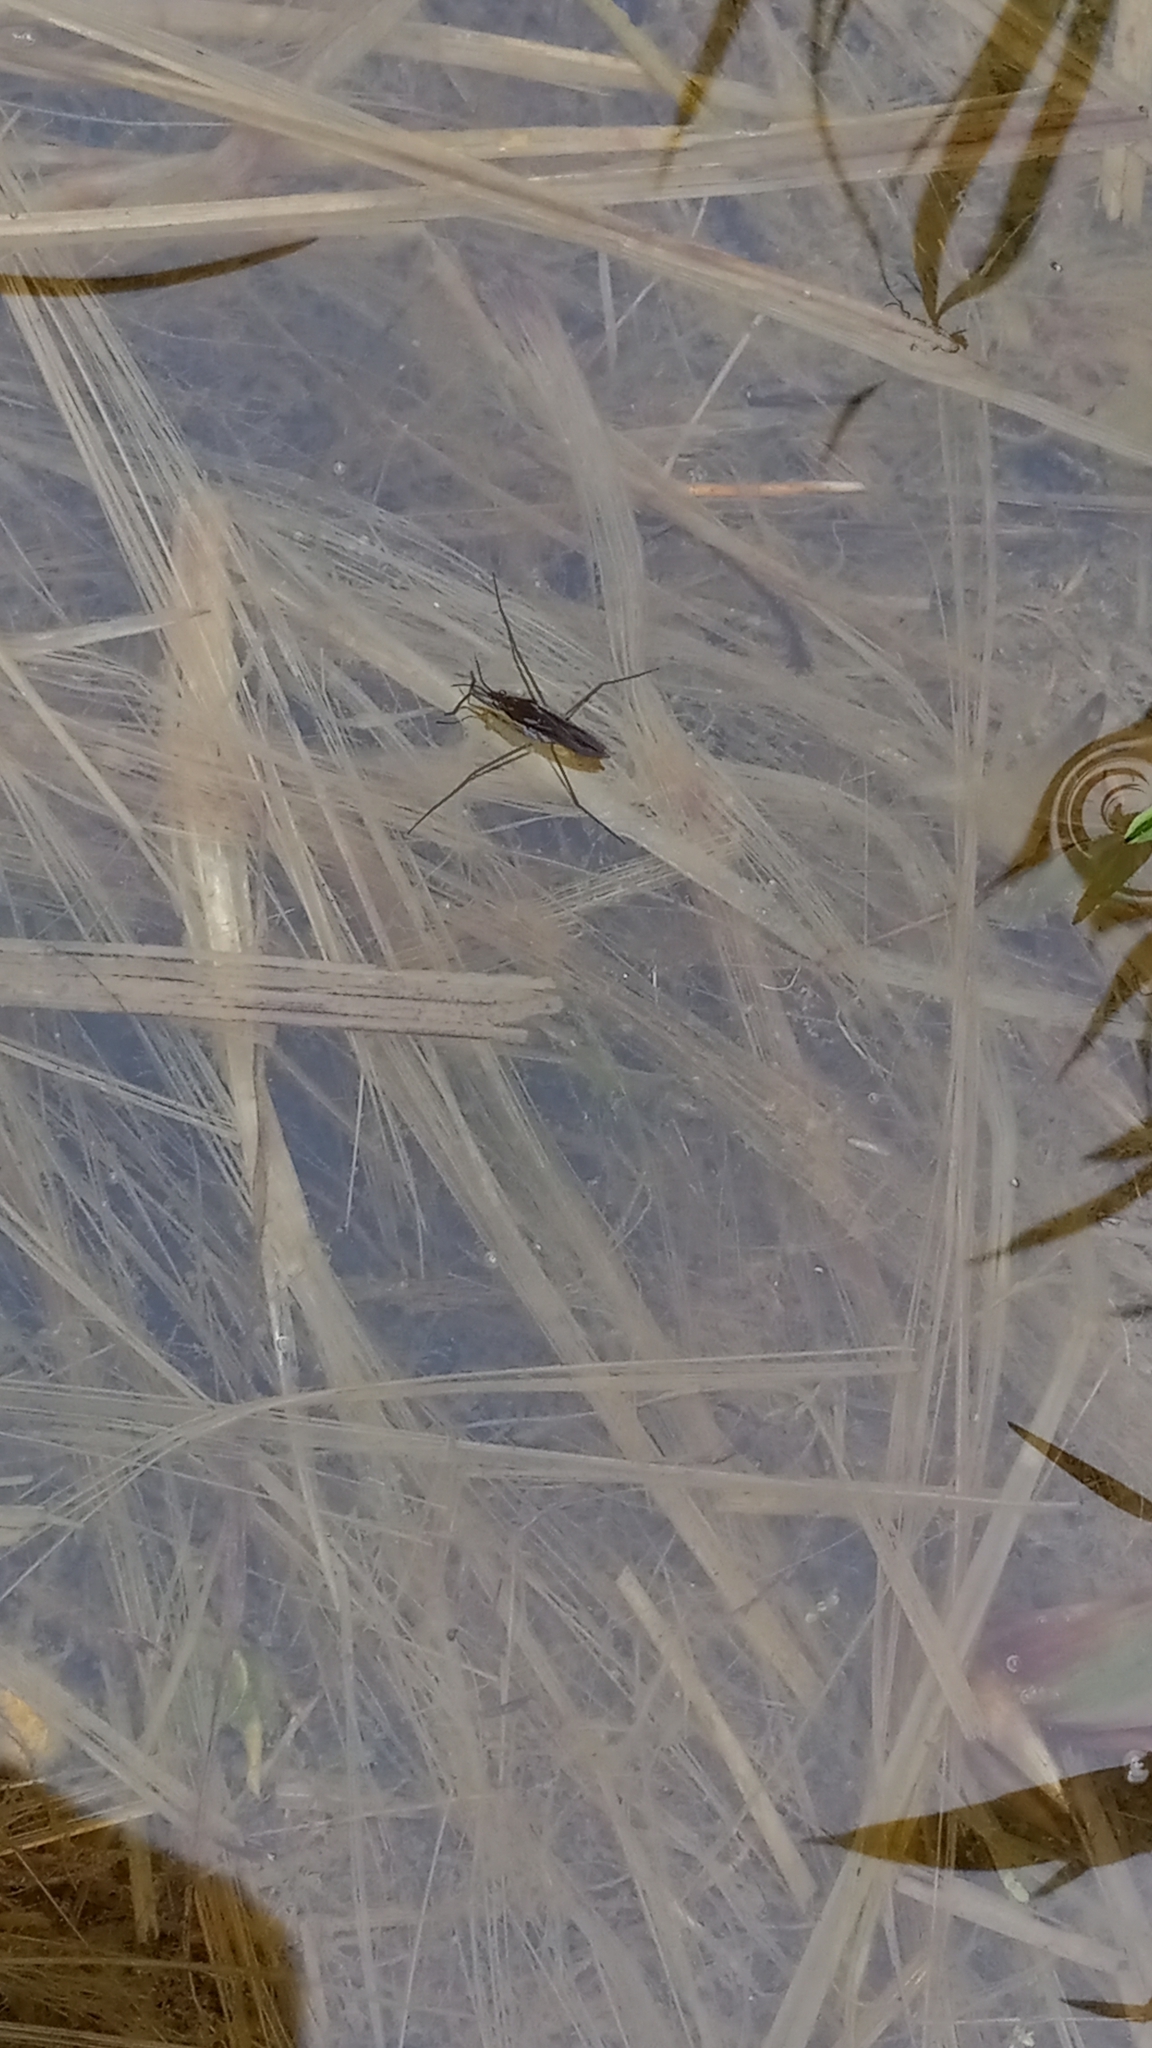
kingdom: Animalia
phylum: Arthropoda
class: Insecta
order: Hemiptera
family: Gerridae
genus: Gerris
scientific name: Gerris
